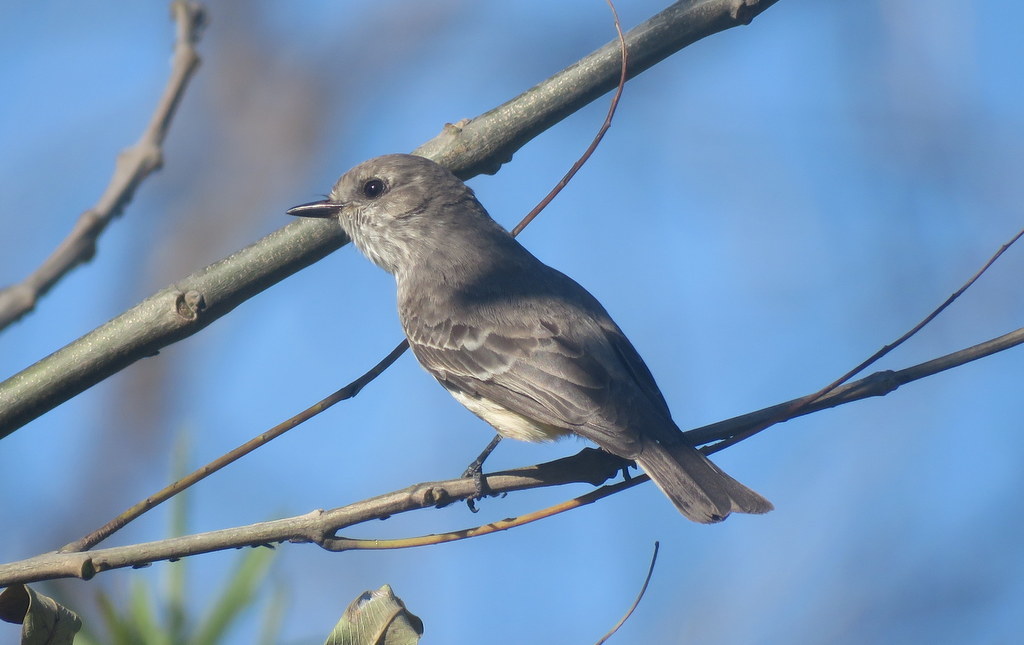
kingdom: Animalia
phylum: Chordata
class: Aves
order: Passeriformes
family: Tyrannidae
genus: Pyrocephalus
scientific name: Pyrocephalus rubinus
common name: Vermilion flycatcher
